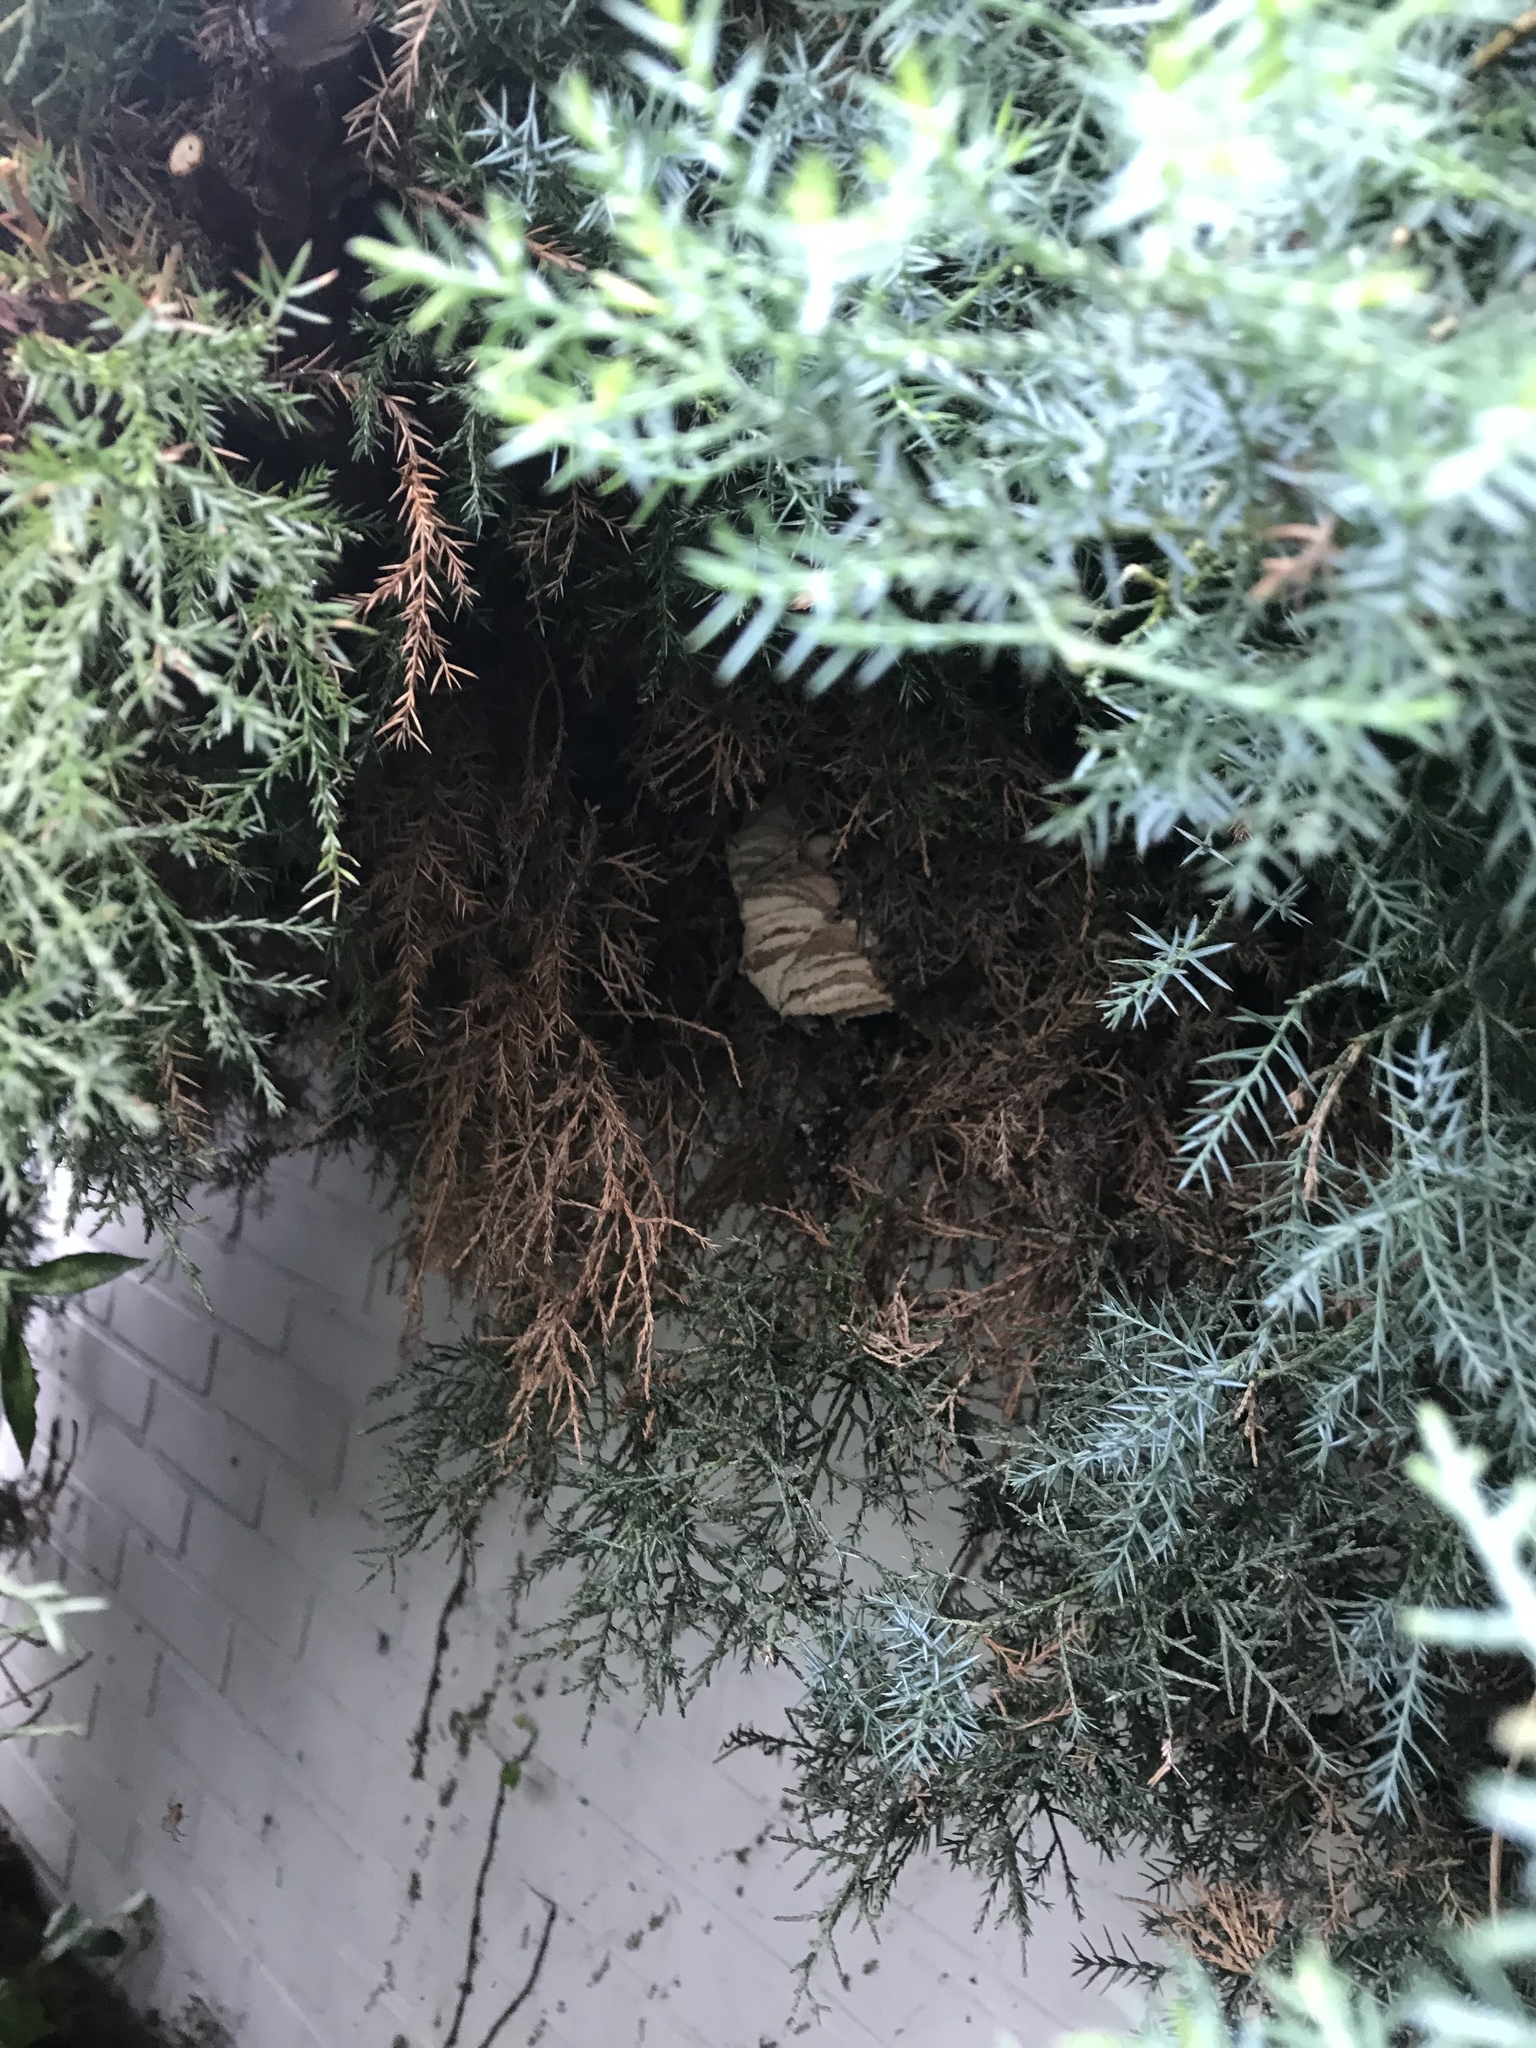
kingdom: Animalia
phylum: Arthropoda
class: Insecta
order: Hymenoptera
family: Vespidae
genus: Vespa
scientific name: Vespa crabro
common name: Hornet
